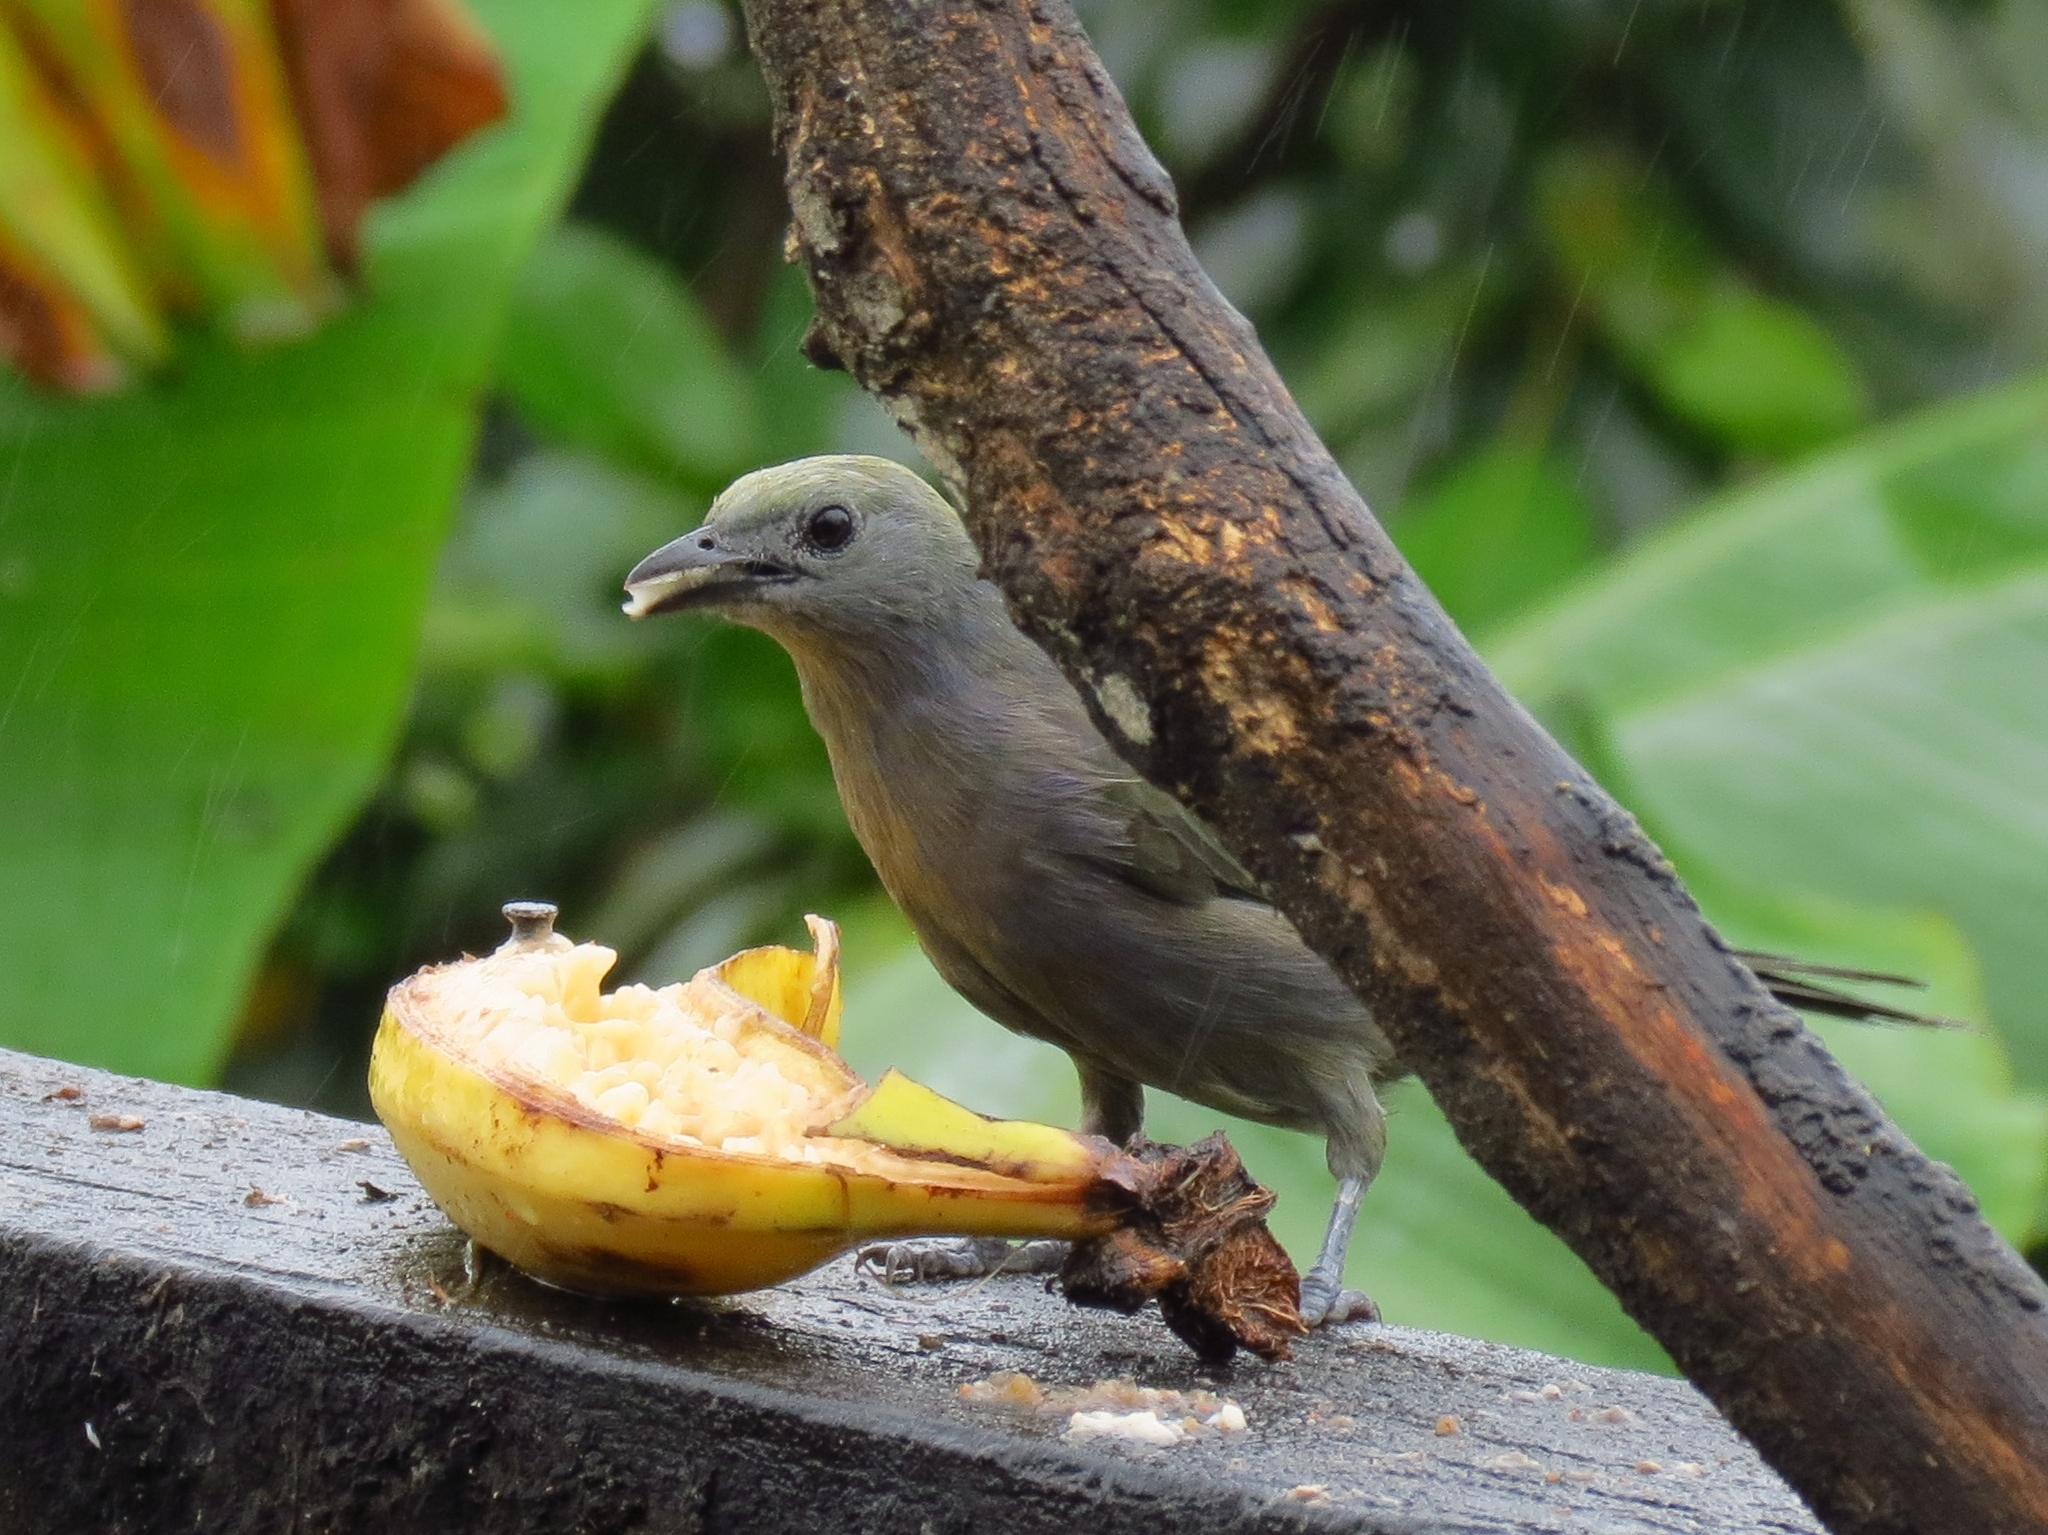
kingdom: Animalia
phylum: Chordata
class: Aves
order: Passeriformes
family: Thraupidae
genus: Thraupis
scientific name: Thraupis palmarum
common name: Palm tanager
